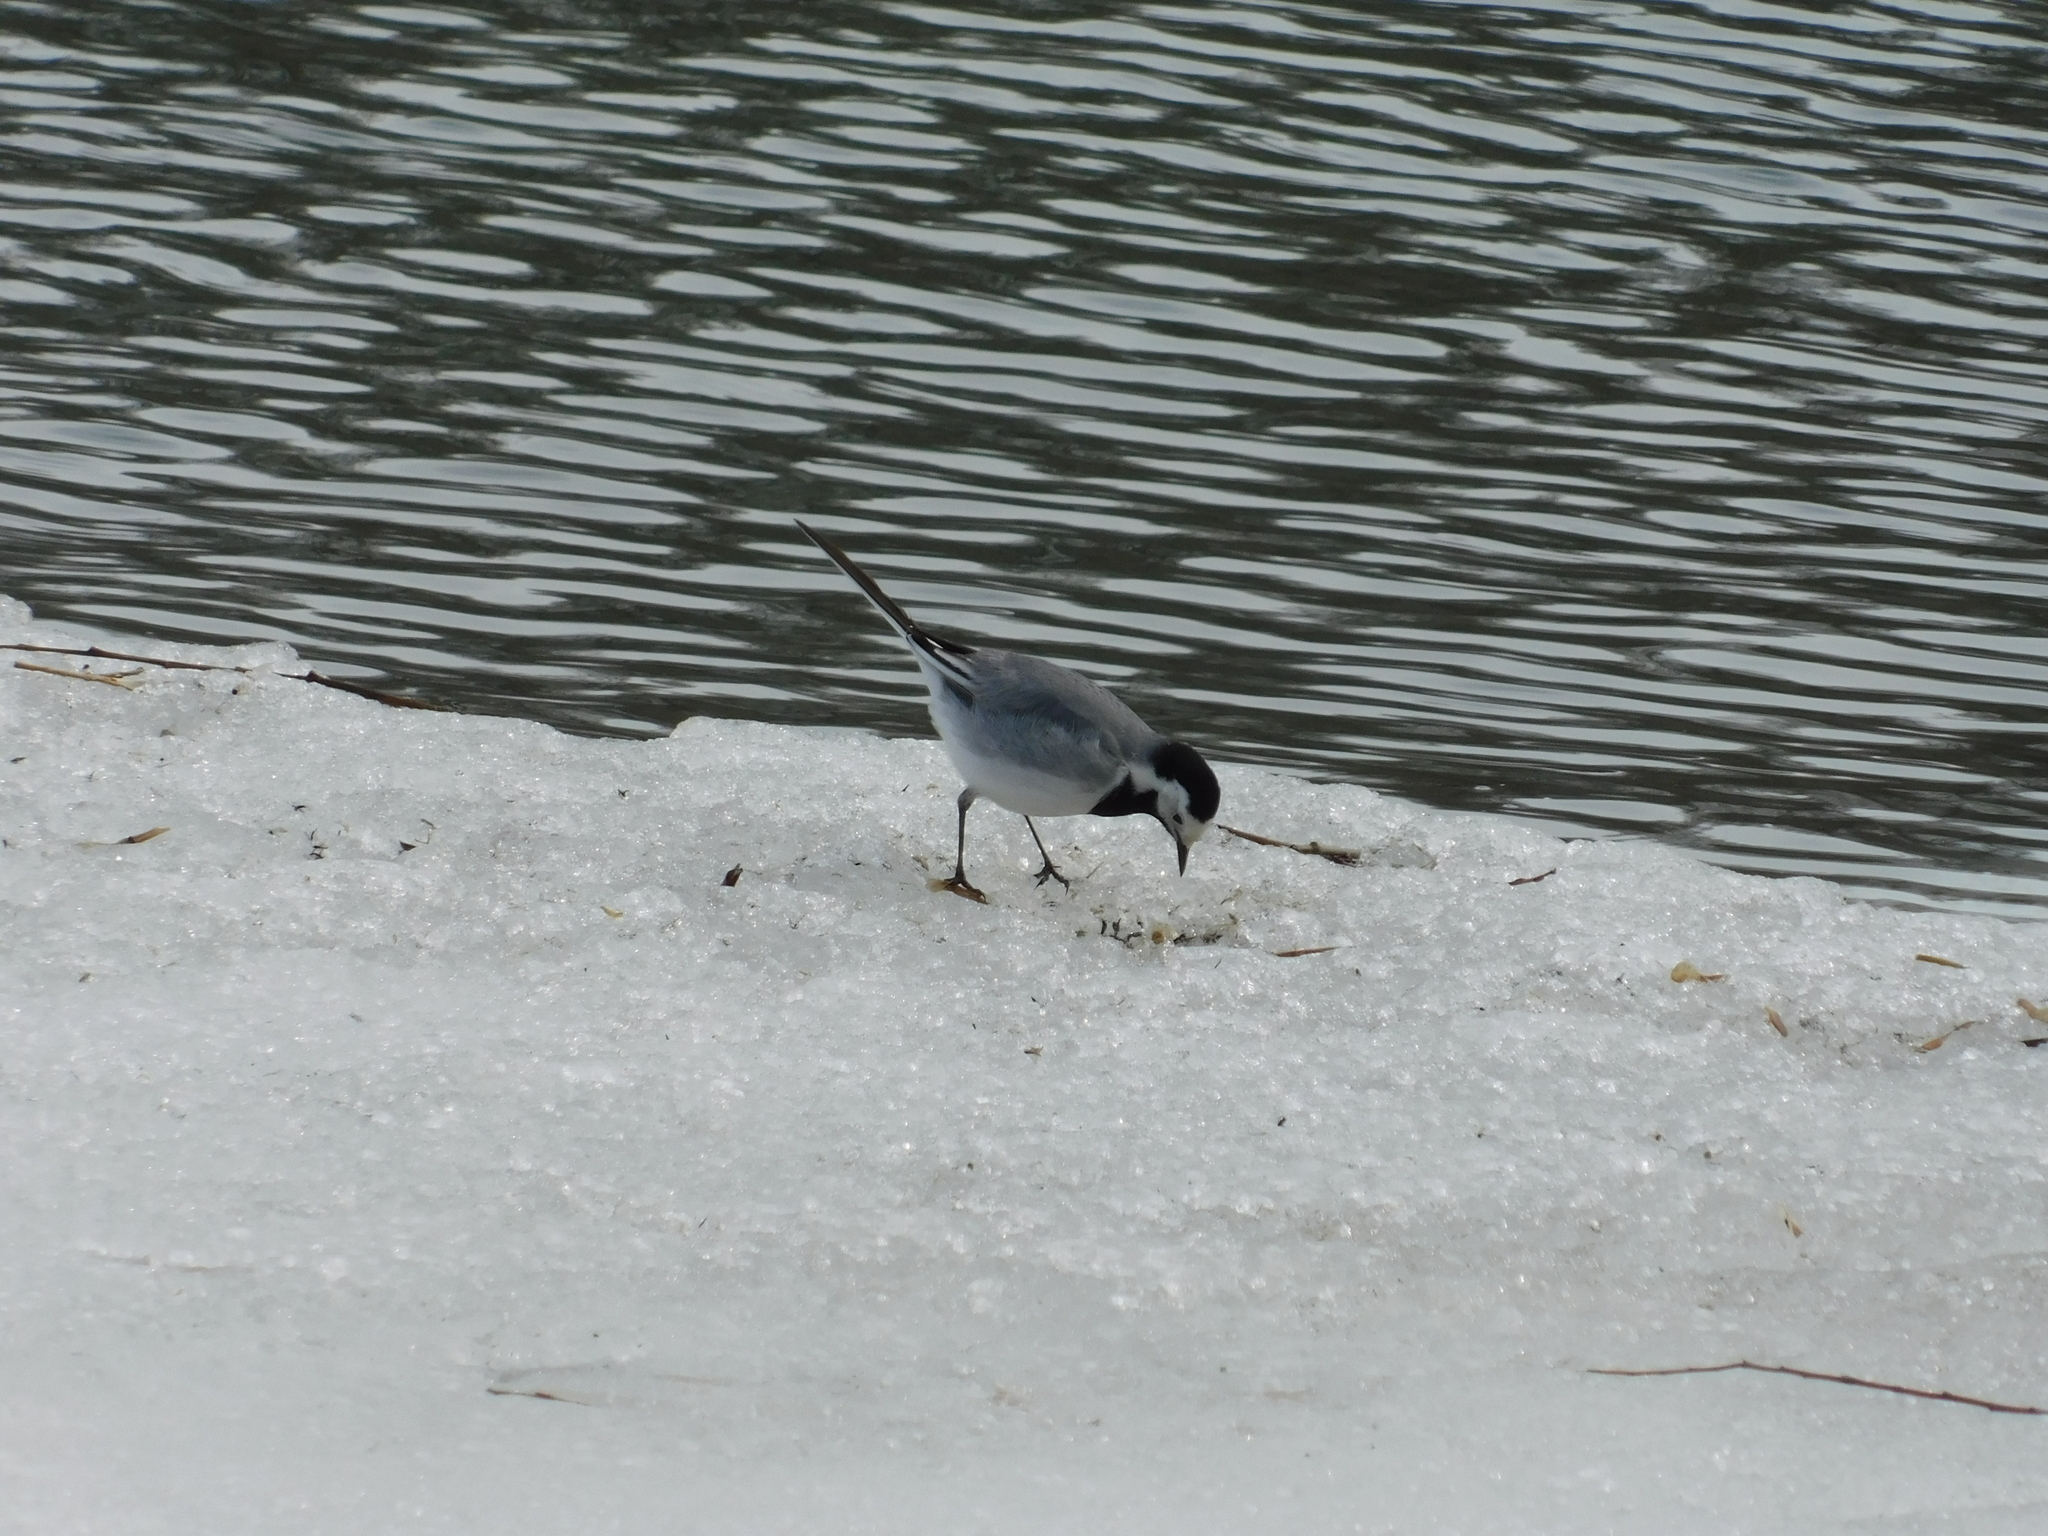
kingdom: Animalia
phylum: Chordata
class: Aves
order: Passeriformes
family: Motacillidae
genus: Motacilla
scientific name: Motacilla alba
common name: White wagtail
